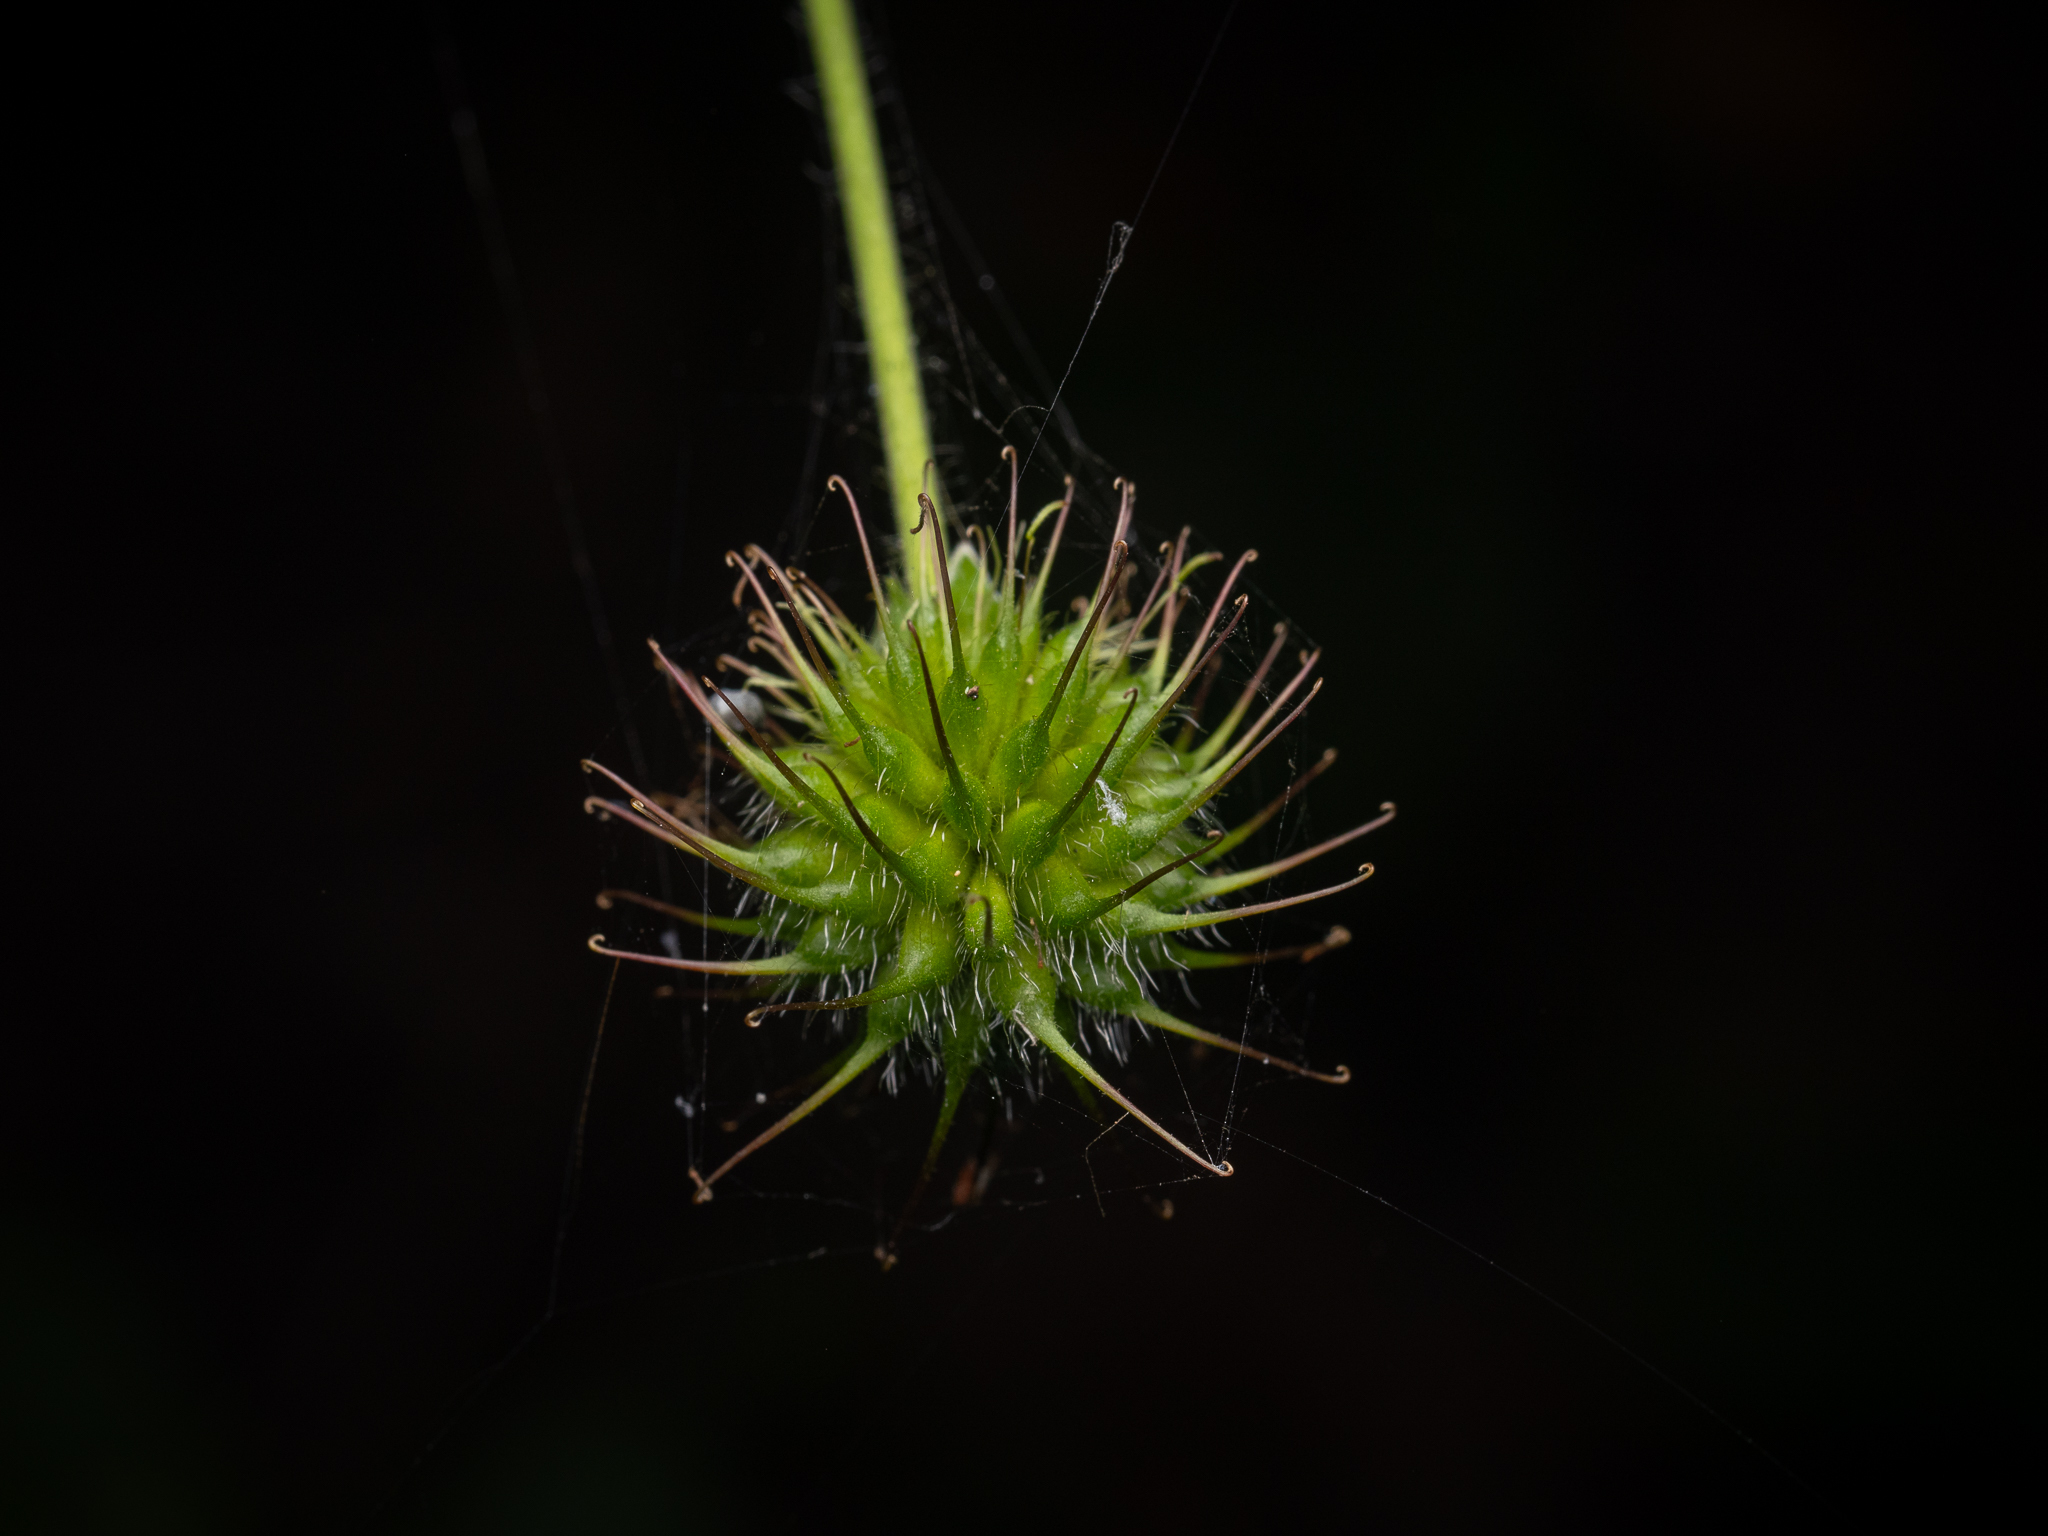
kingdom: Plantae
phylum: Tracheophyta
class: Magnoliopsida
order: Rosales
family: Rosaceae
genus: Geum
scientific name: Geum urbanum
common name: Wood avens
